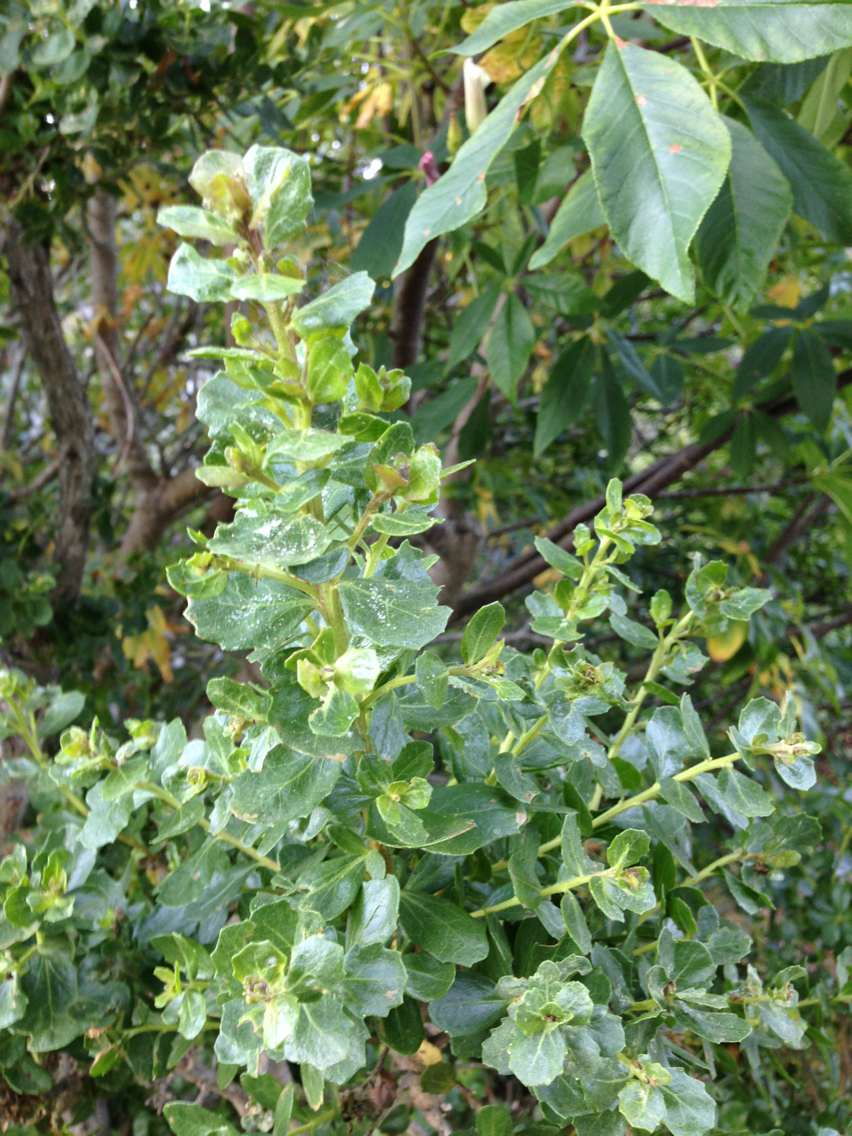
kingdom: Plantae
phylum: Tracheophyta
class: Magnoliopsida
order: Asterales
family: Asteraceae
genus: Baccharis
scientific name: Baccharis pilularis
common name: Coyotebrush
